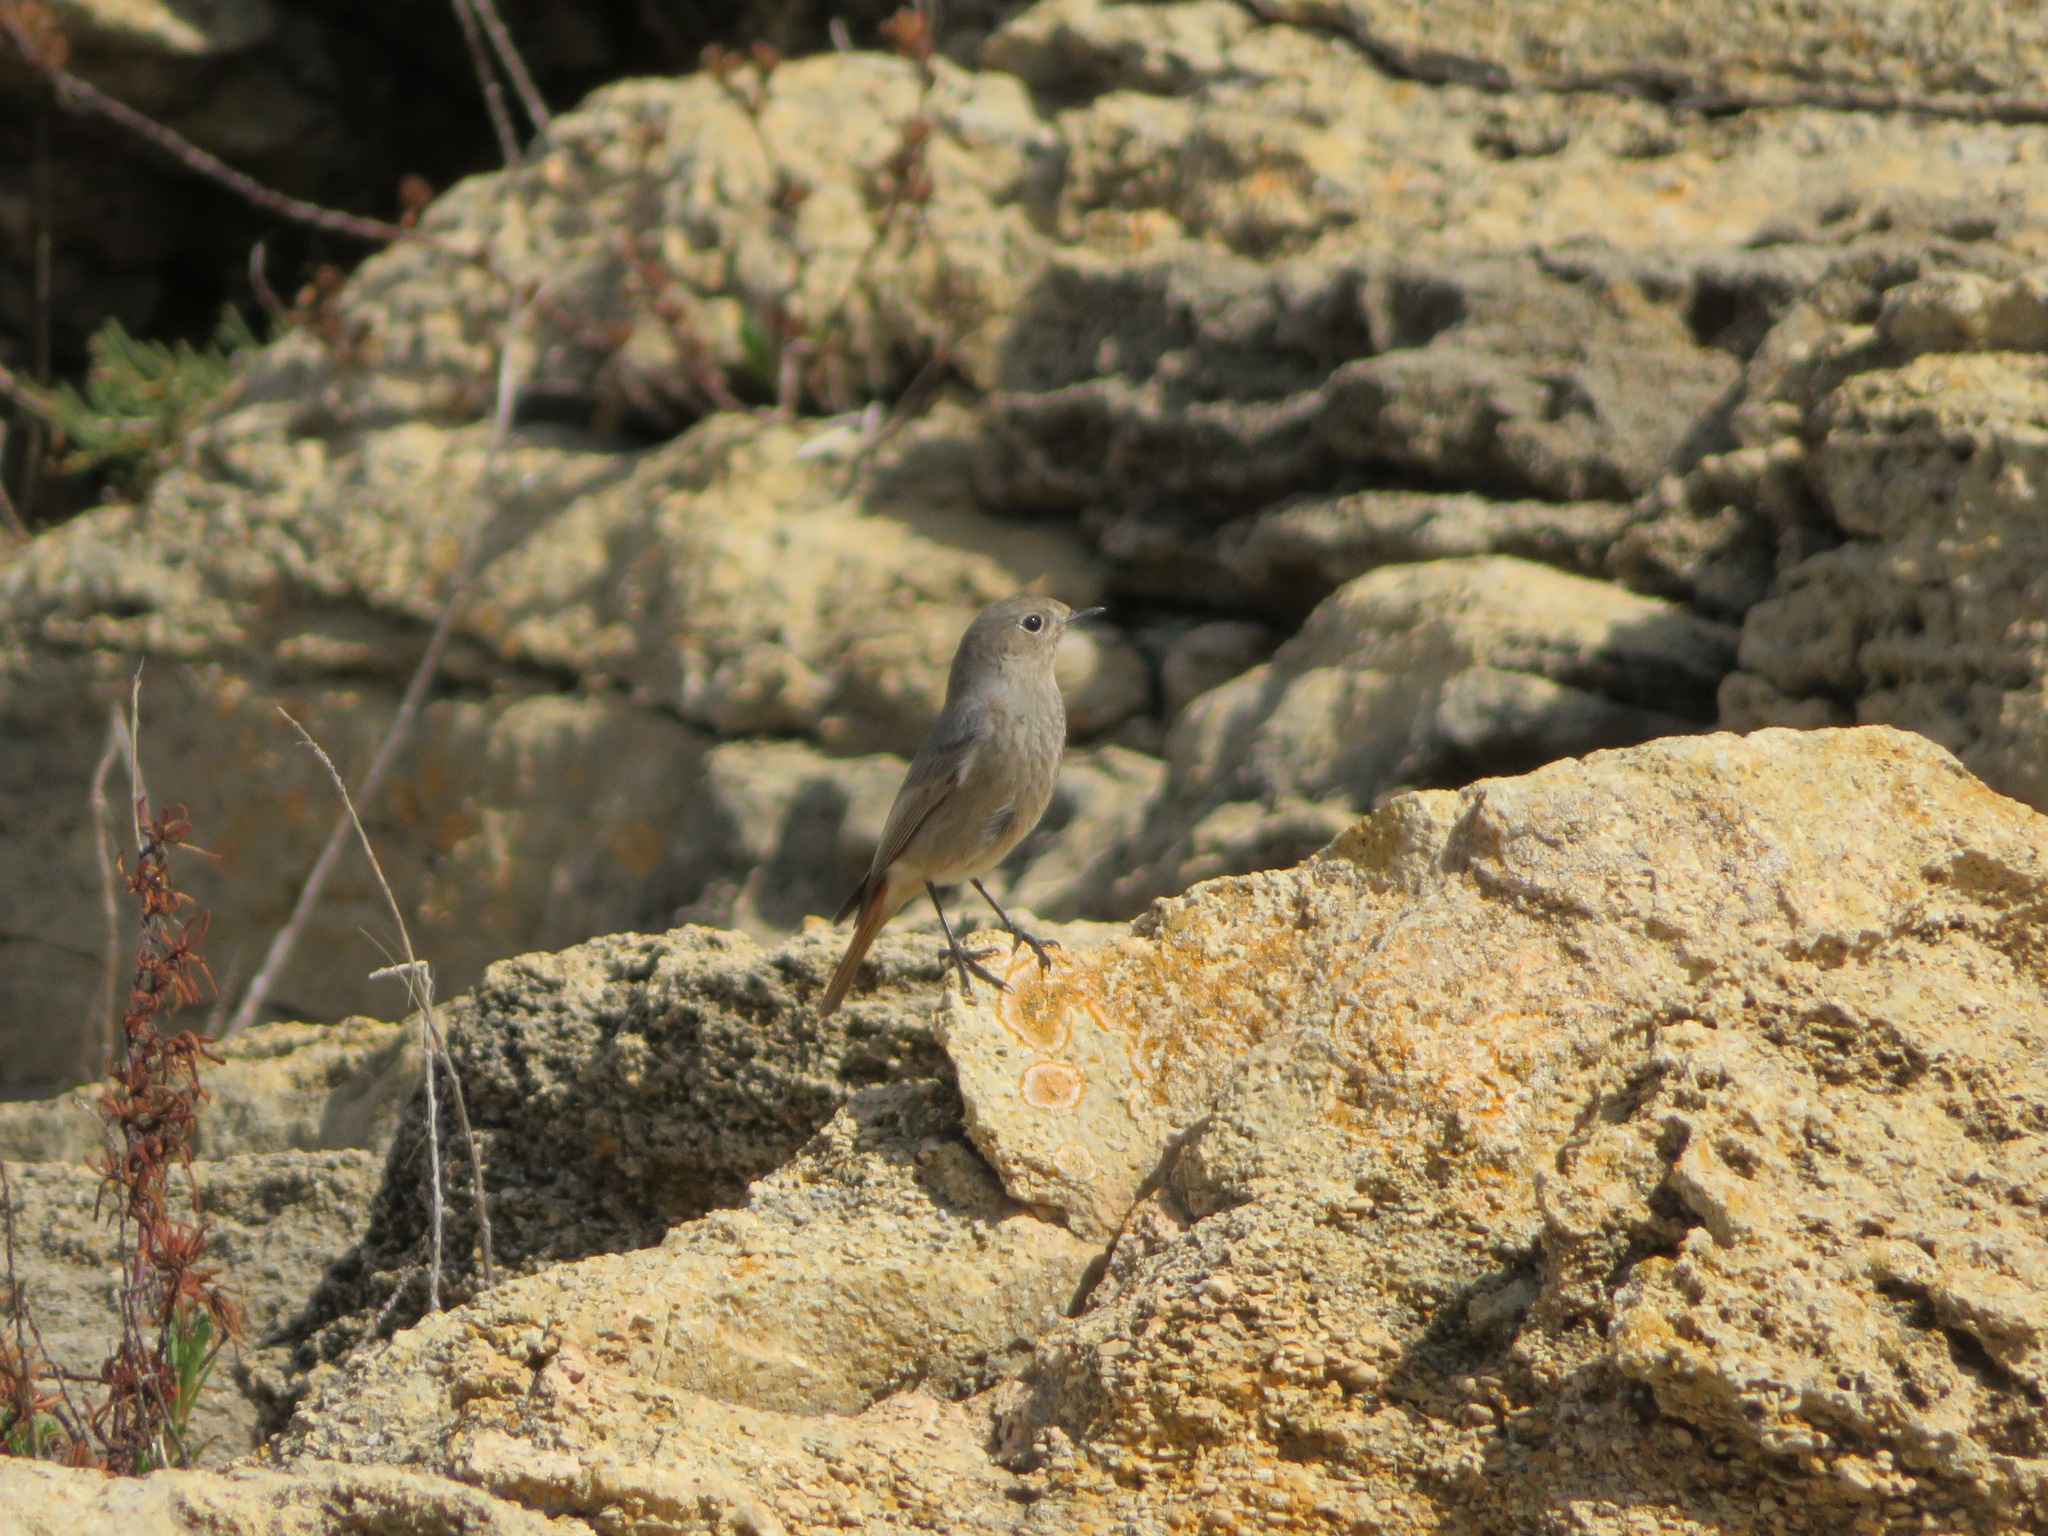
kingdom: Animalia
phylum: Chordata
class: Aves
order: Passeriformes
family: Muscicapidae
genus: Phoenicurus
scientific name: Phoenicurus ochruros
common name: Black redstart
